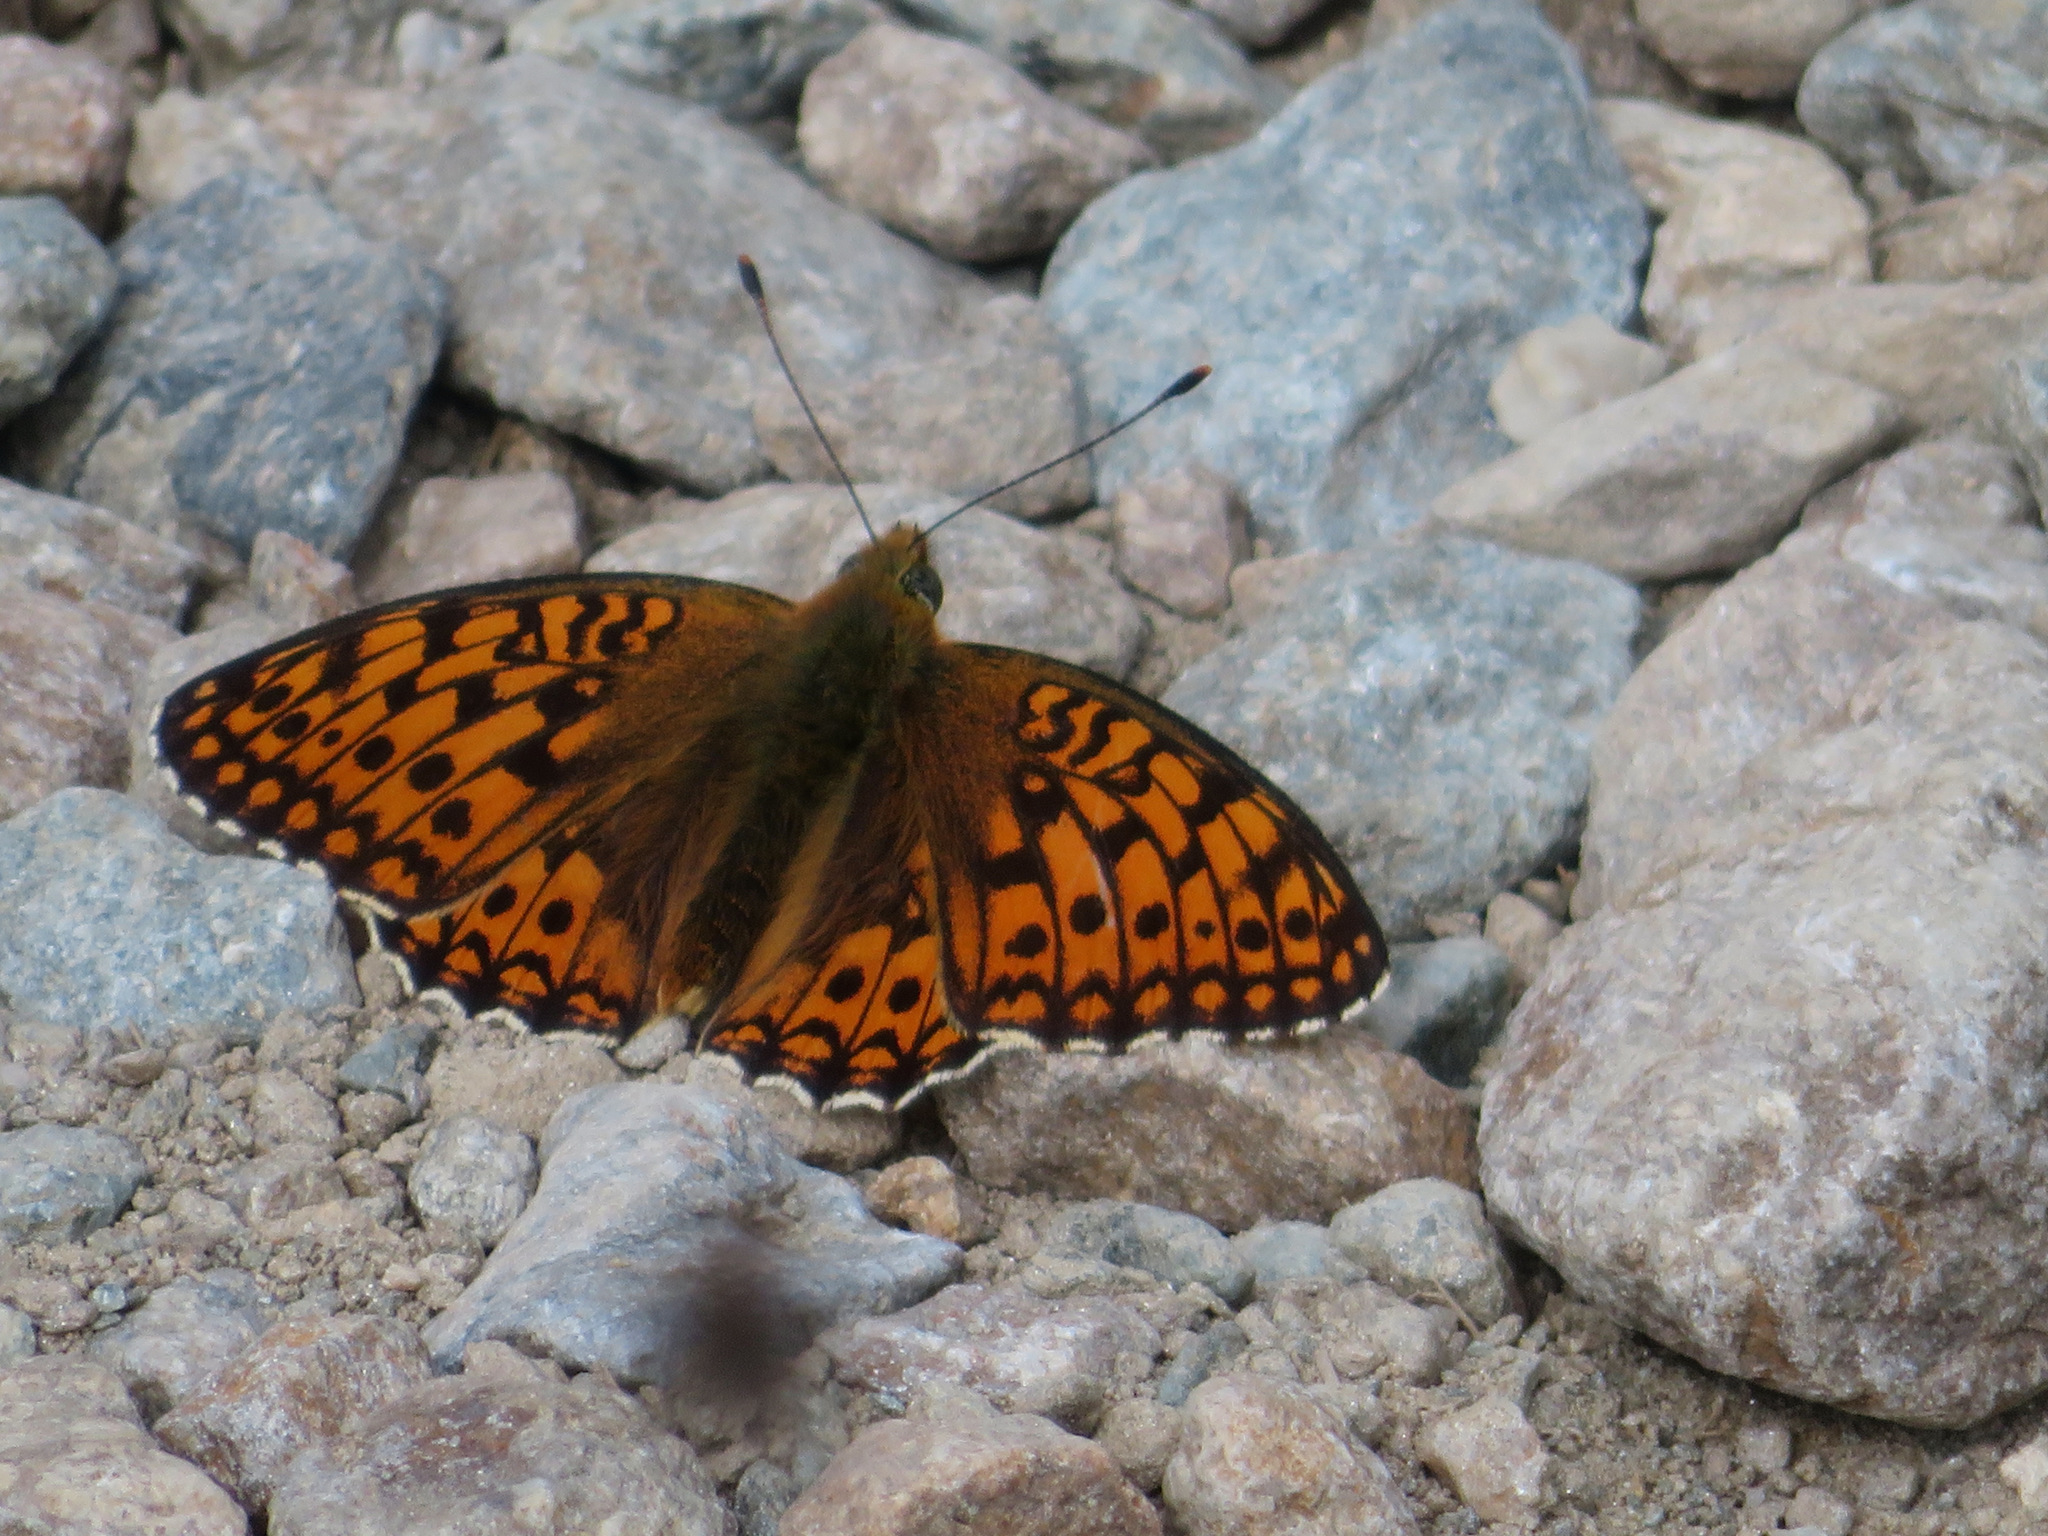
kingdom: Animalia
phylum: Arthropoda
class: Insecta
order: Lepidoptera
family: Nymphalidae
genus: Fabriciana
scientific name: Fabriciana niobe
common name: Niobe fritillary
